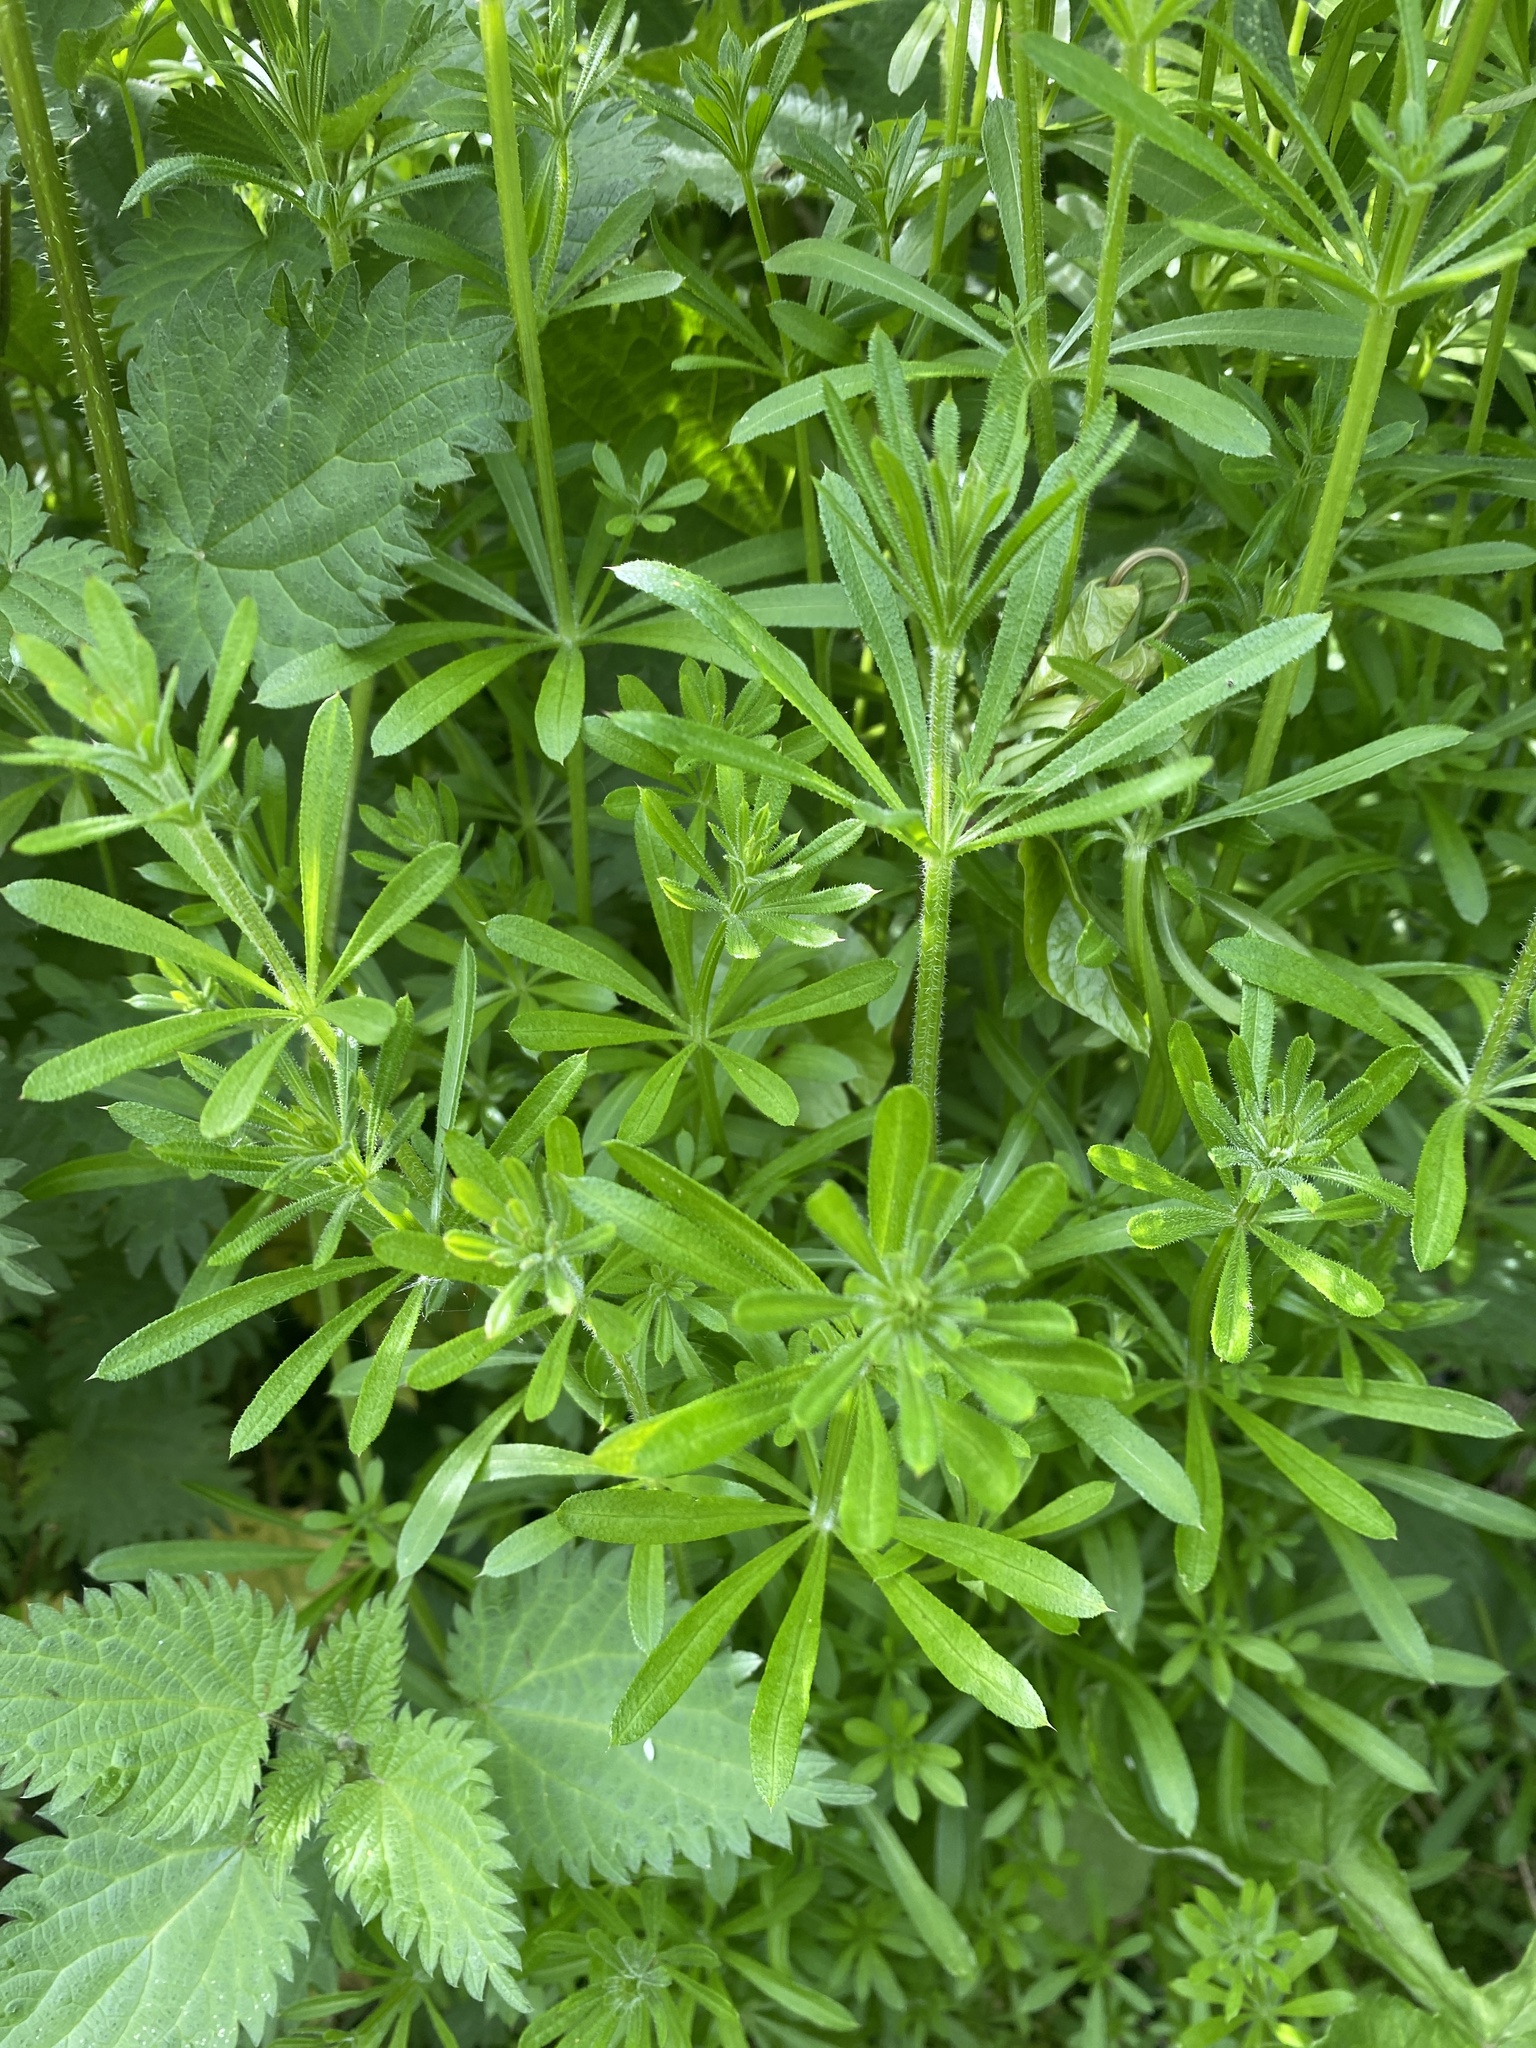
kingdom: Plantae
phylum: Tracheophyta
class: Magnoliopsida
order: Gentianales
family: Rubiaceae
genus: Galium
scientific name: Galium aparine
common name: Cleavers
